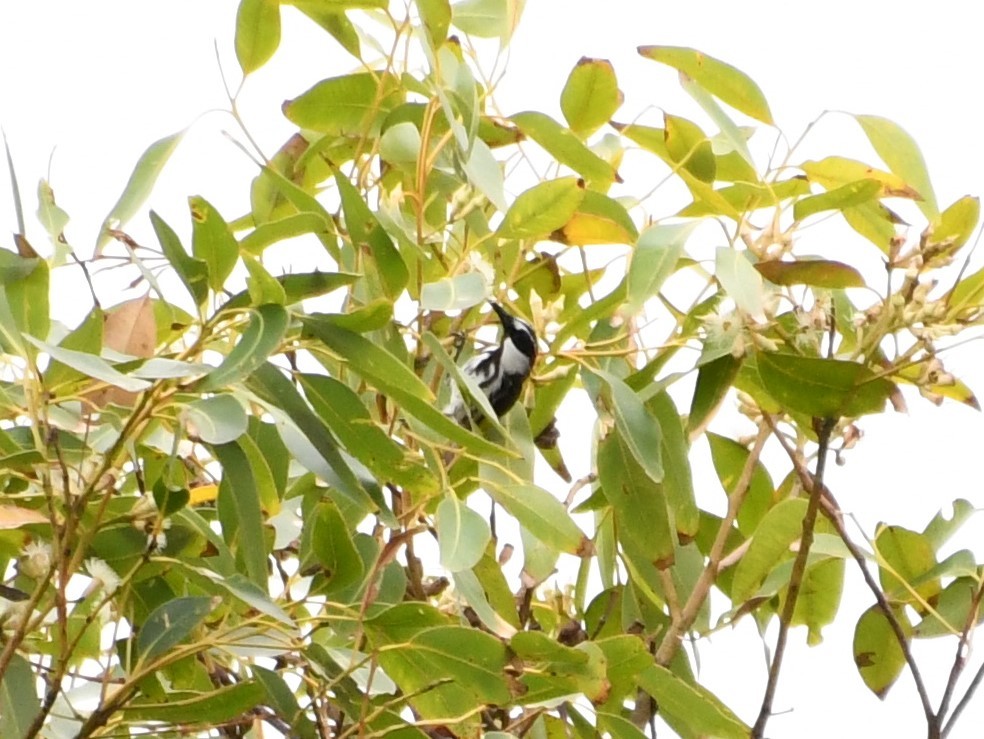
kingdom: Animalia
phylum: Chordata
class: Aves
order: Passeriformes
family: Meliphagidae
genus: Phylidonyris
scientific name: Phylidonyris niger
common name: White-cheeked honeyeater
